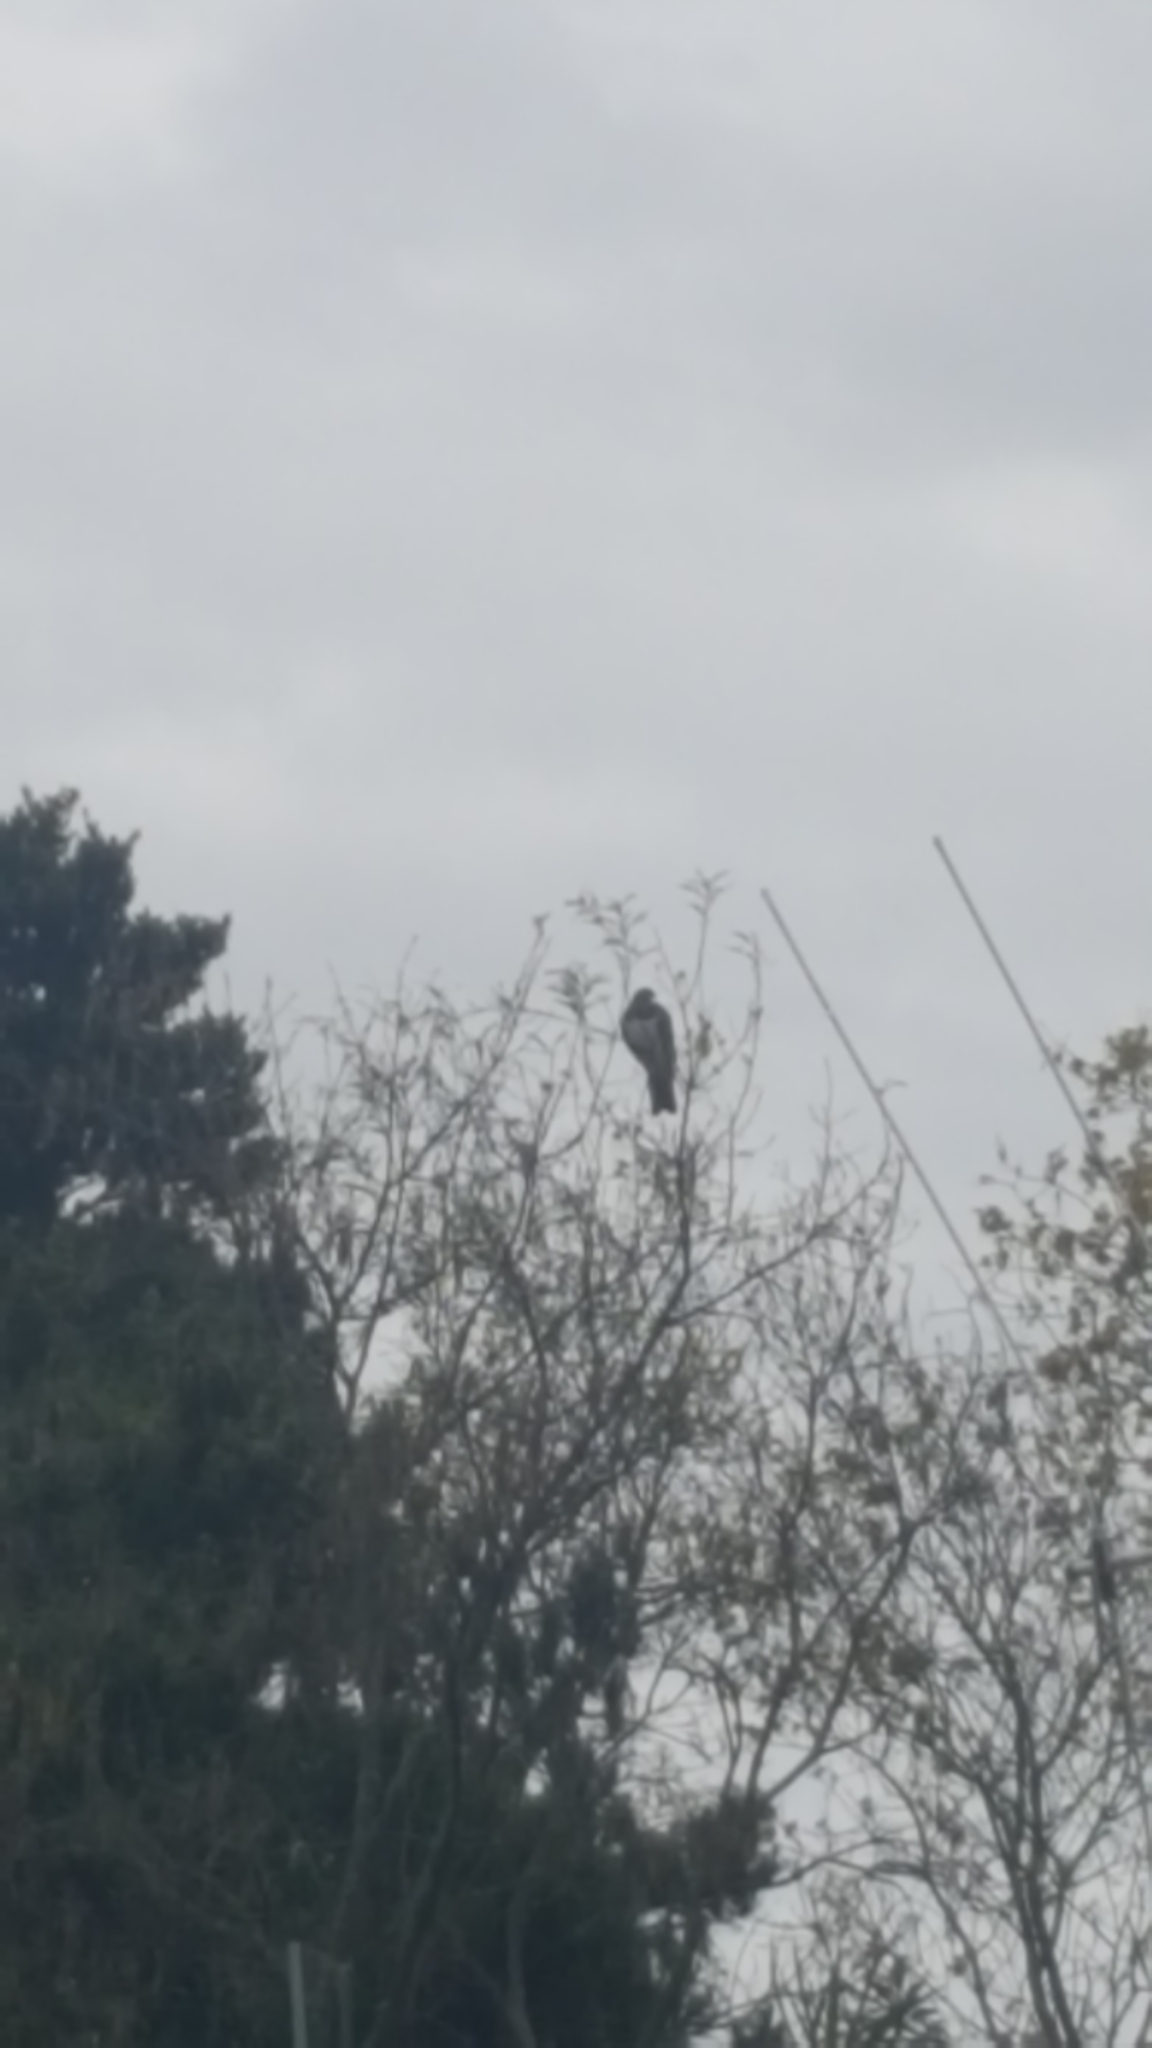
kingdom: Animalia
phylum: Chordata
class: Aves
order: Columbiformes
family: Columbidae
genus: Hemiphaga
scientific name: Hemiphaga novaeseelandiae
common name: New zealand pigeon
